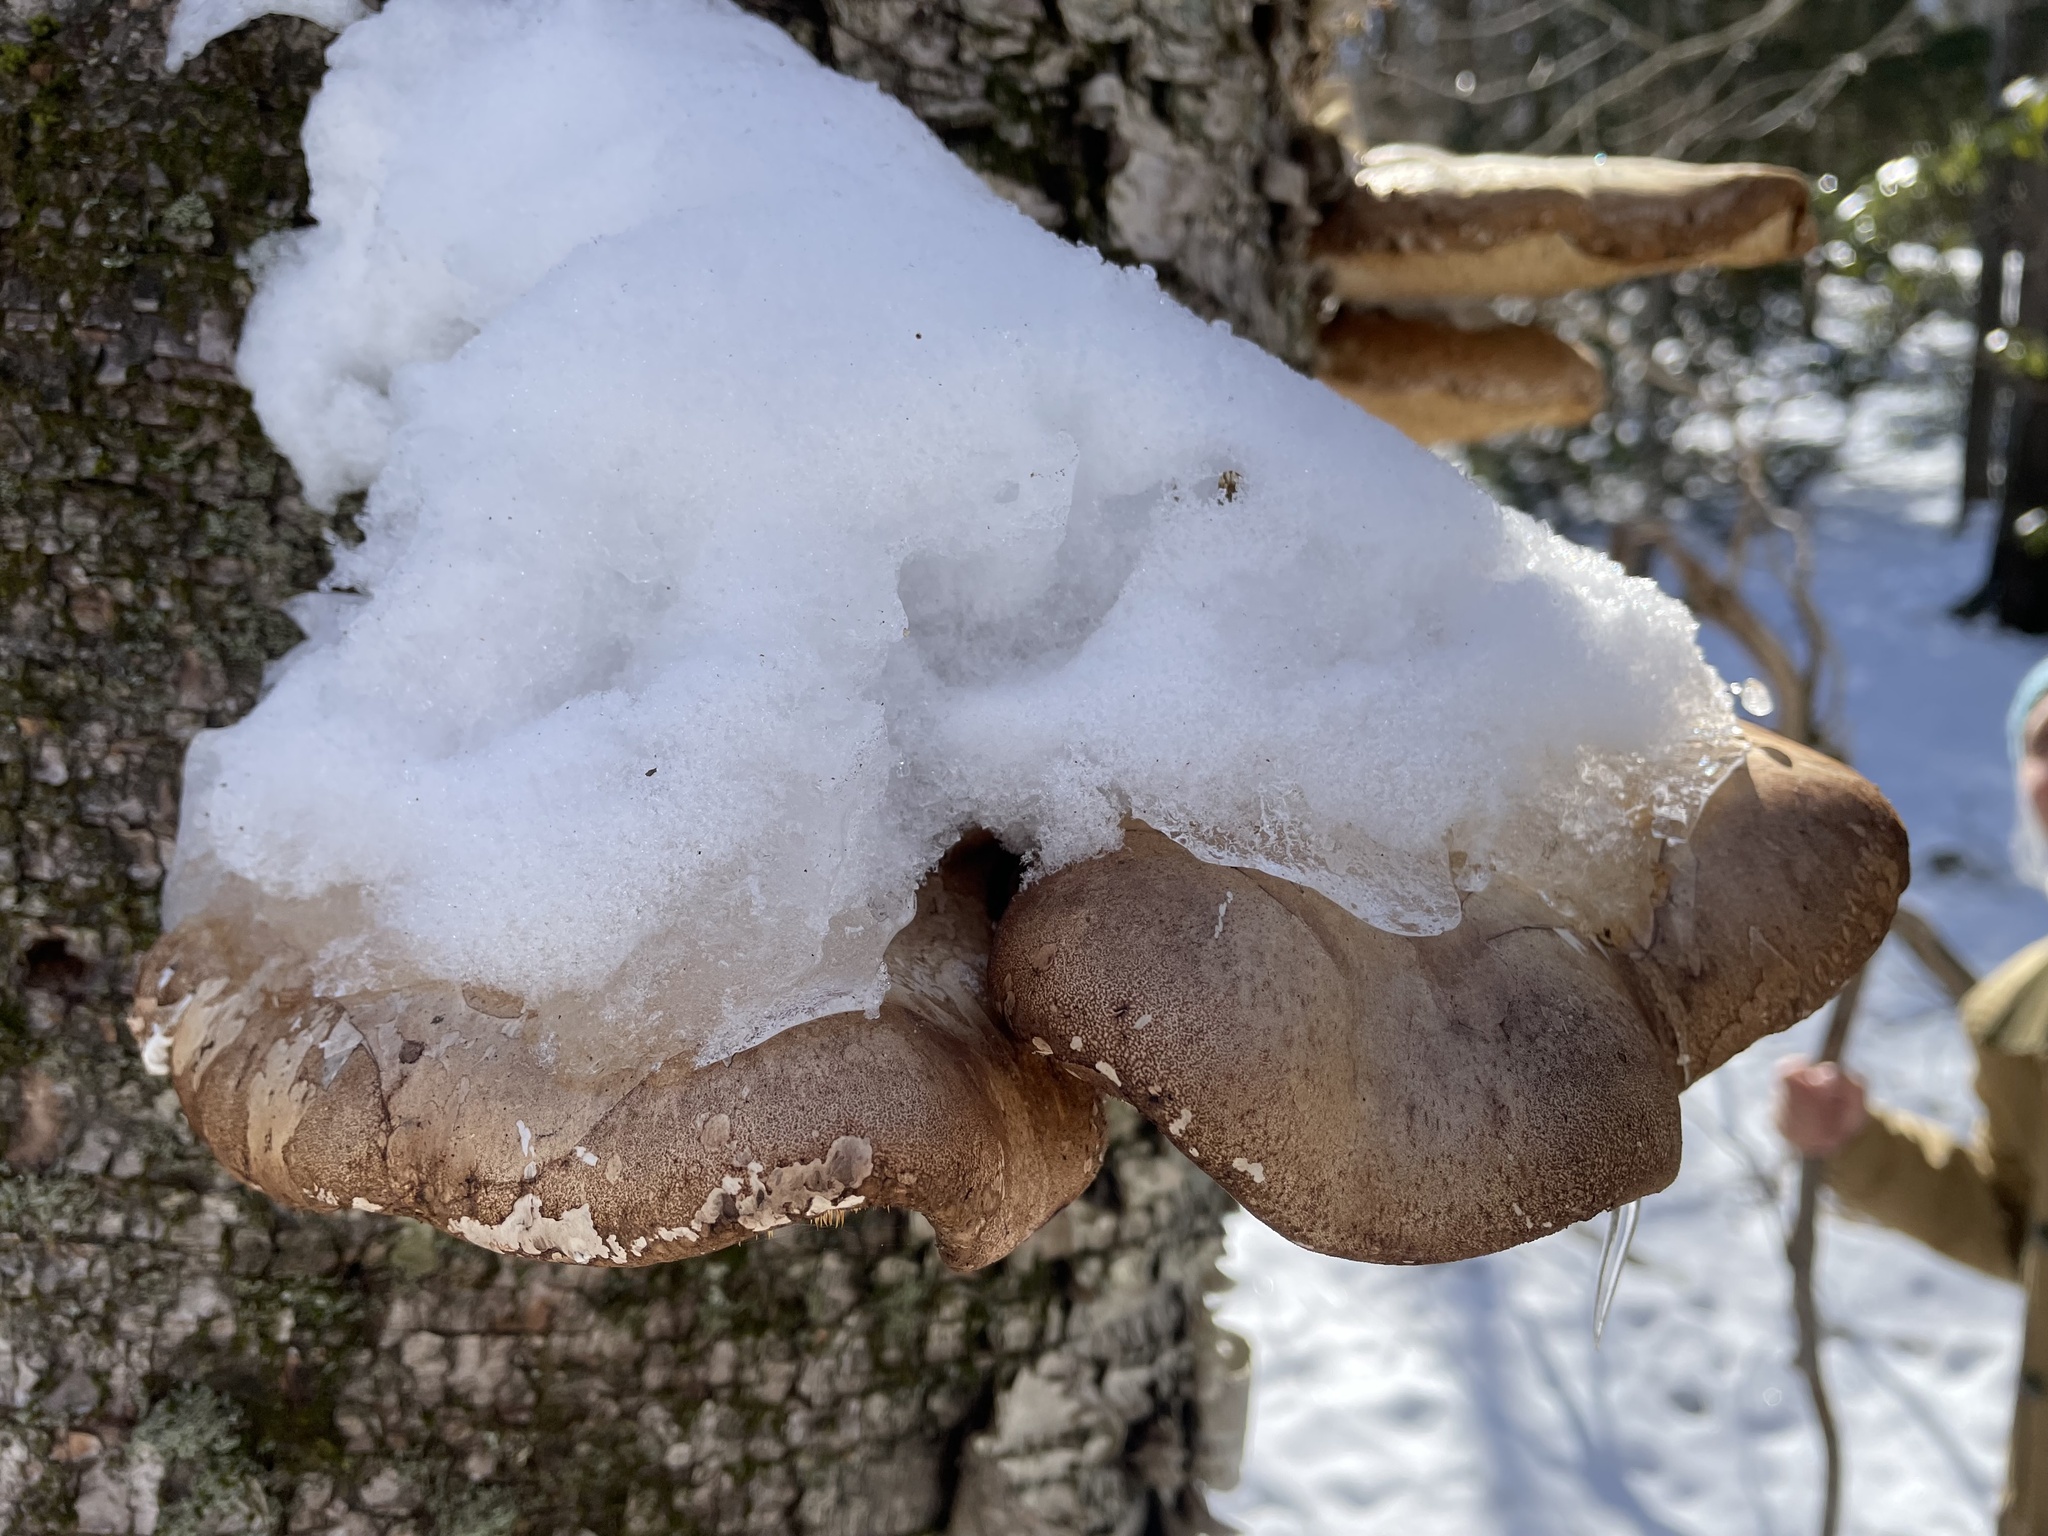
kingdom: Fungi
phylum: Basidiomycota
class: Agaricomycetes
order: Polyporales
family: Fomitopsidaceae
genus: Fomitopsis
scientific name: Fomitopsis betulina
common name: Birch polypore
